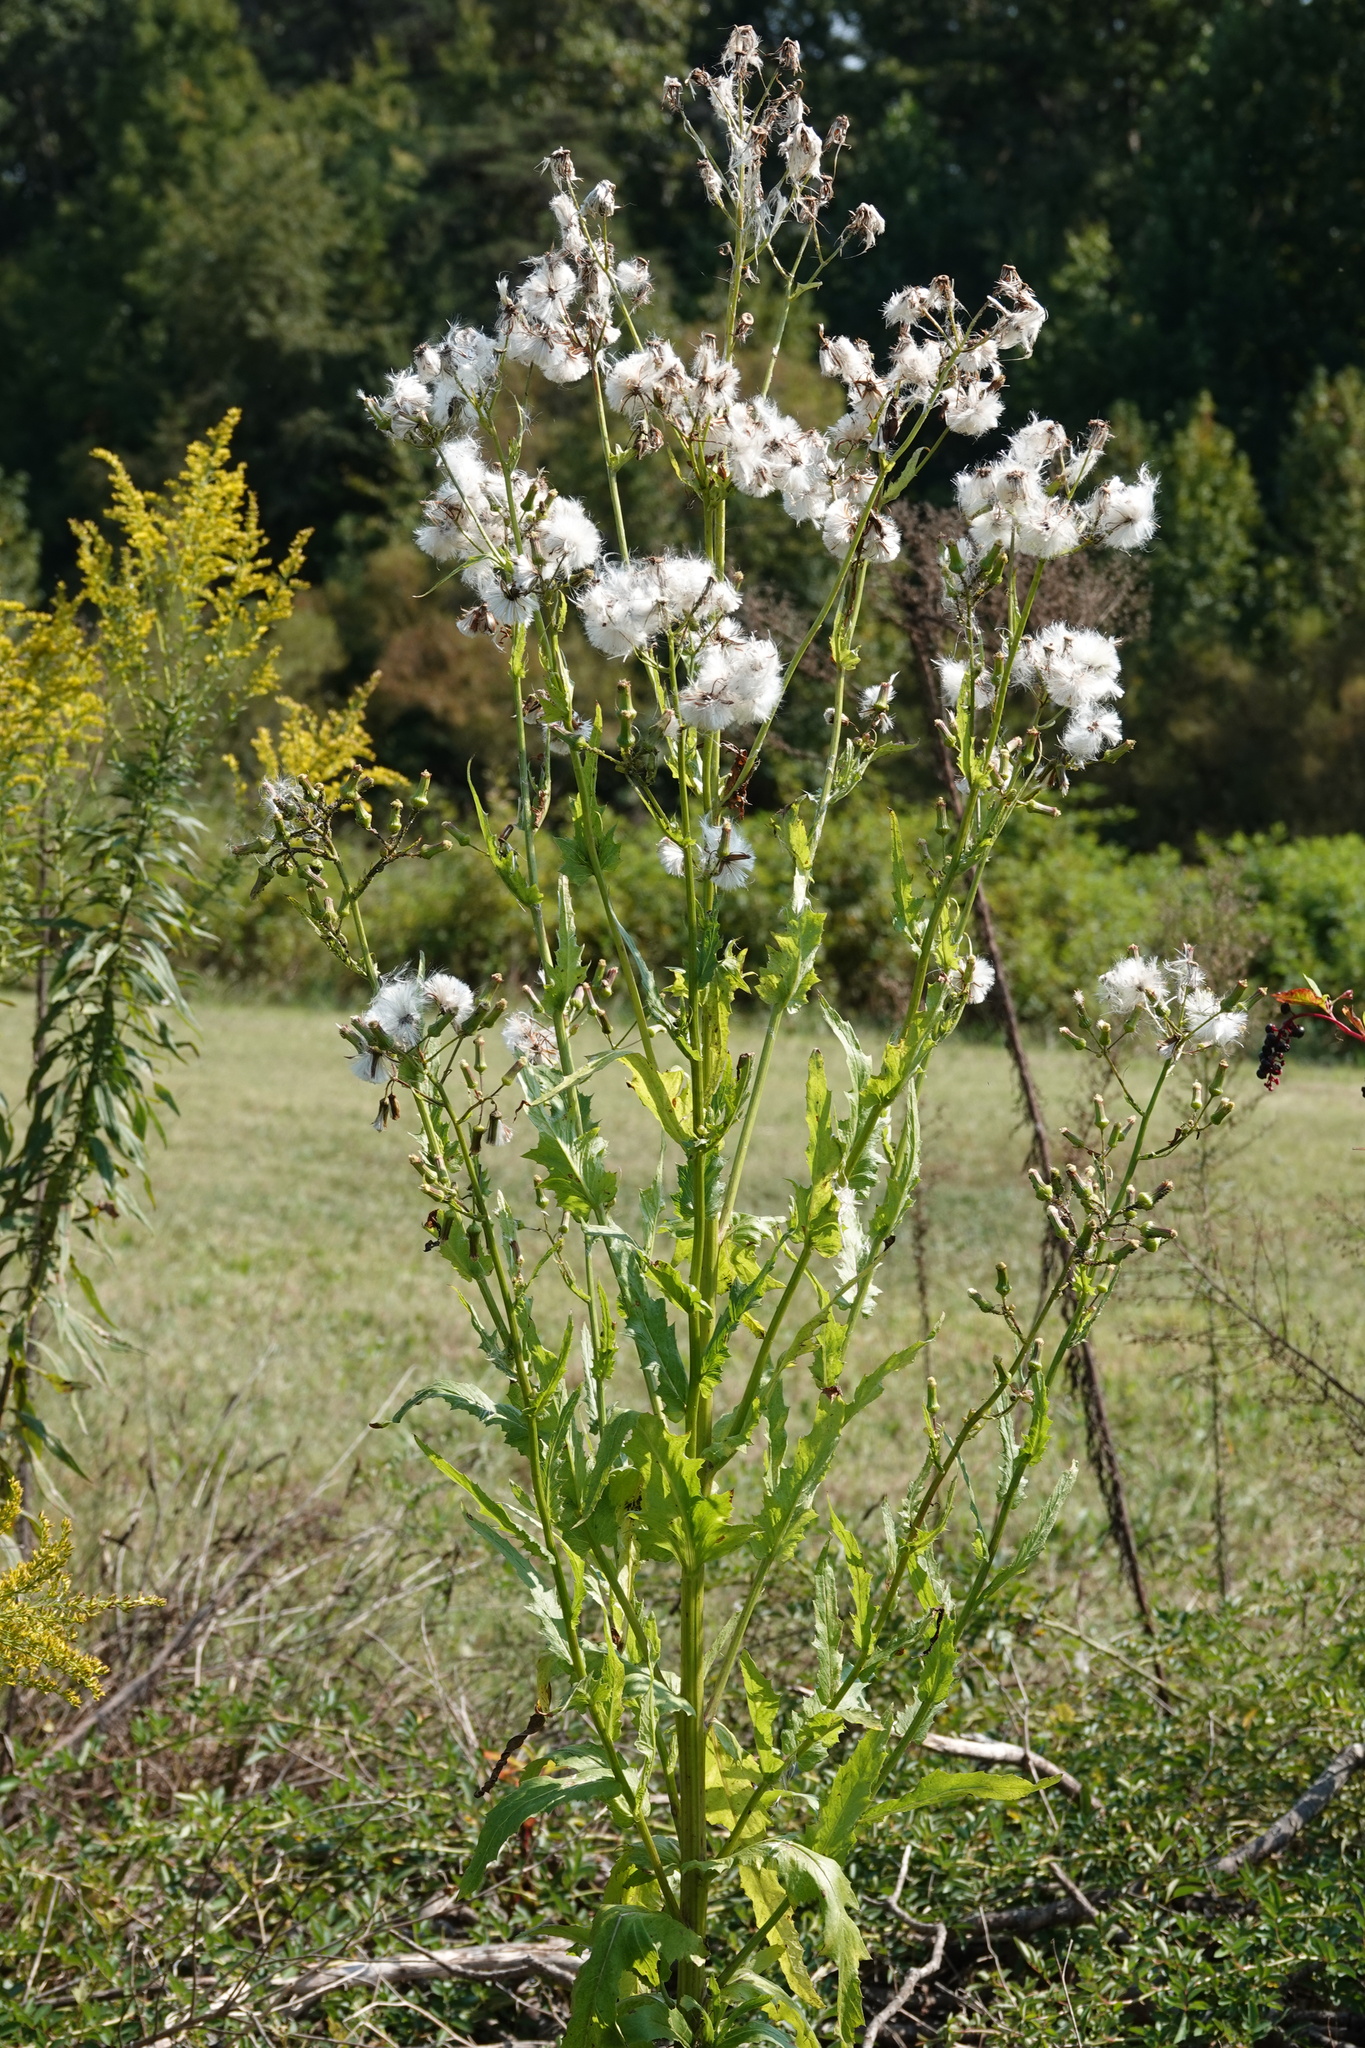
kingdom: Plantae
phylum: Tracheophyta
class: Magnoliopsida
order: Asterales
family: Asteraceae
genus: Erechtites
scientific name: Erechtites hieraciifolius
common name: American burnweed
